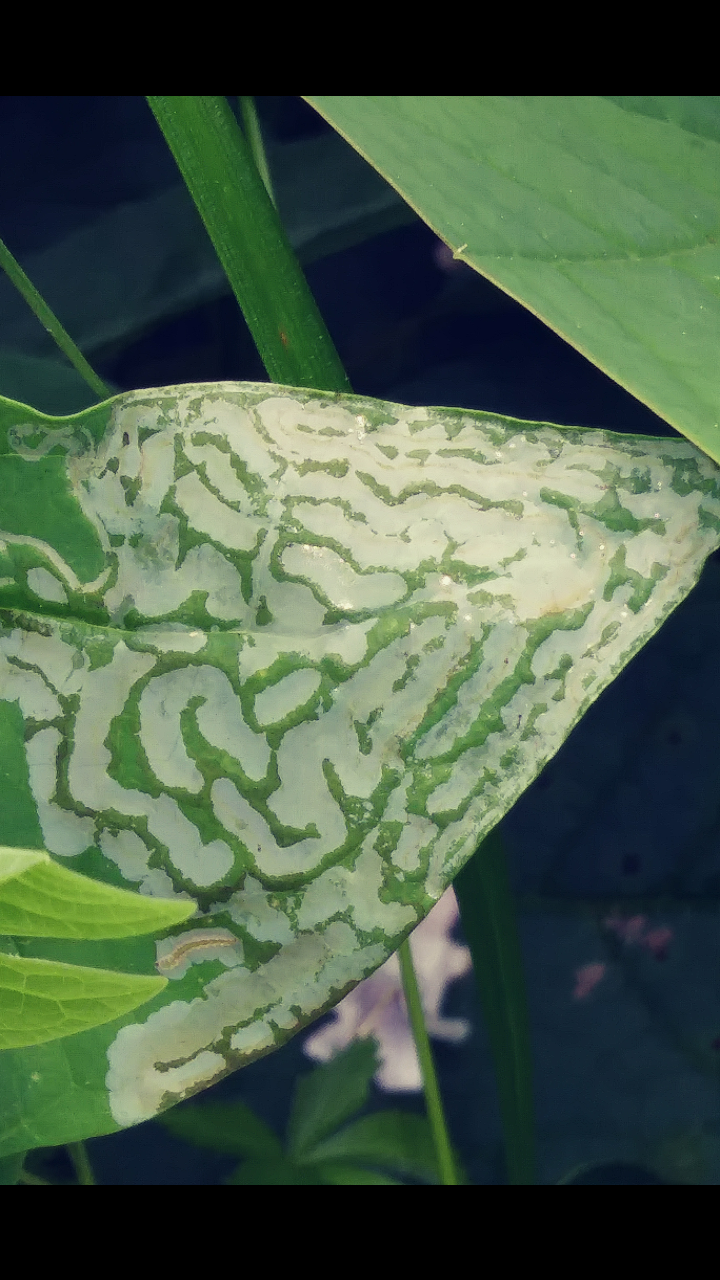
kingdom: Animalia
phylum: Arthropoda
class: Insecta
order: Lepidoptera
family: Gracillariidae
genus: Phyllocnistis
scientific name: Phyllocnistis liriodendronella
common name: Tulip tree leaf miner
